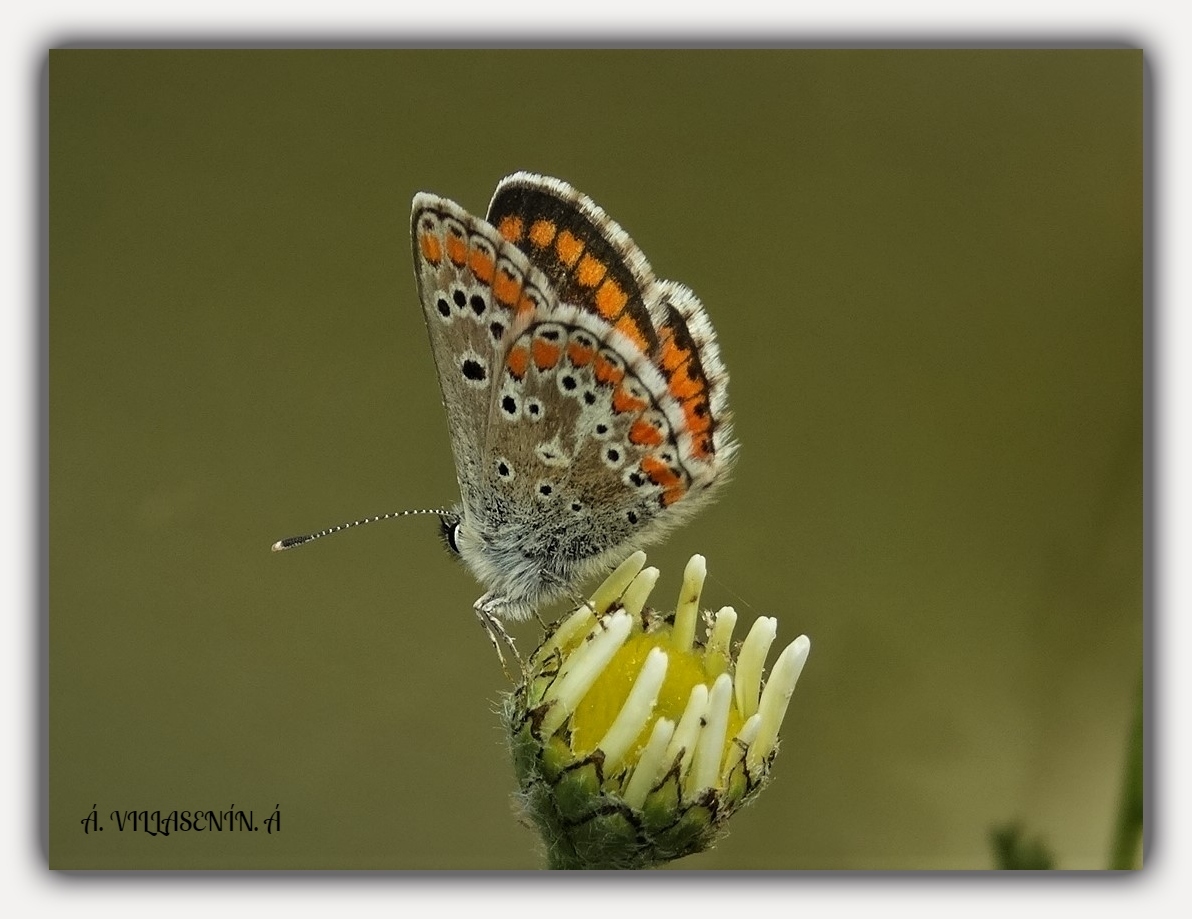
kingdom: Animalia
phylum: Arthropoda
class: Insecta
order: Lepidoptera
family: Lycaenidae
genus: Aricia
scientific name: Aricia cramera
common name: Eschscholtz´s brown  argus
